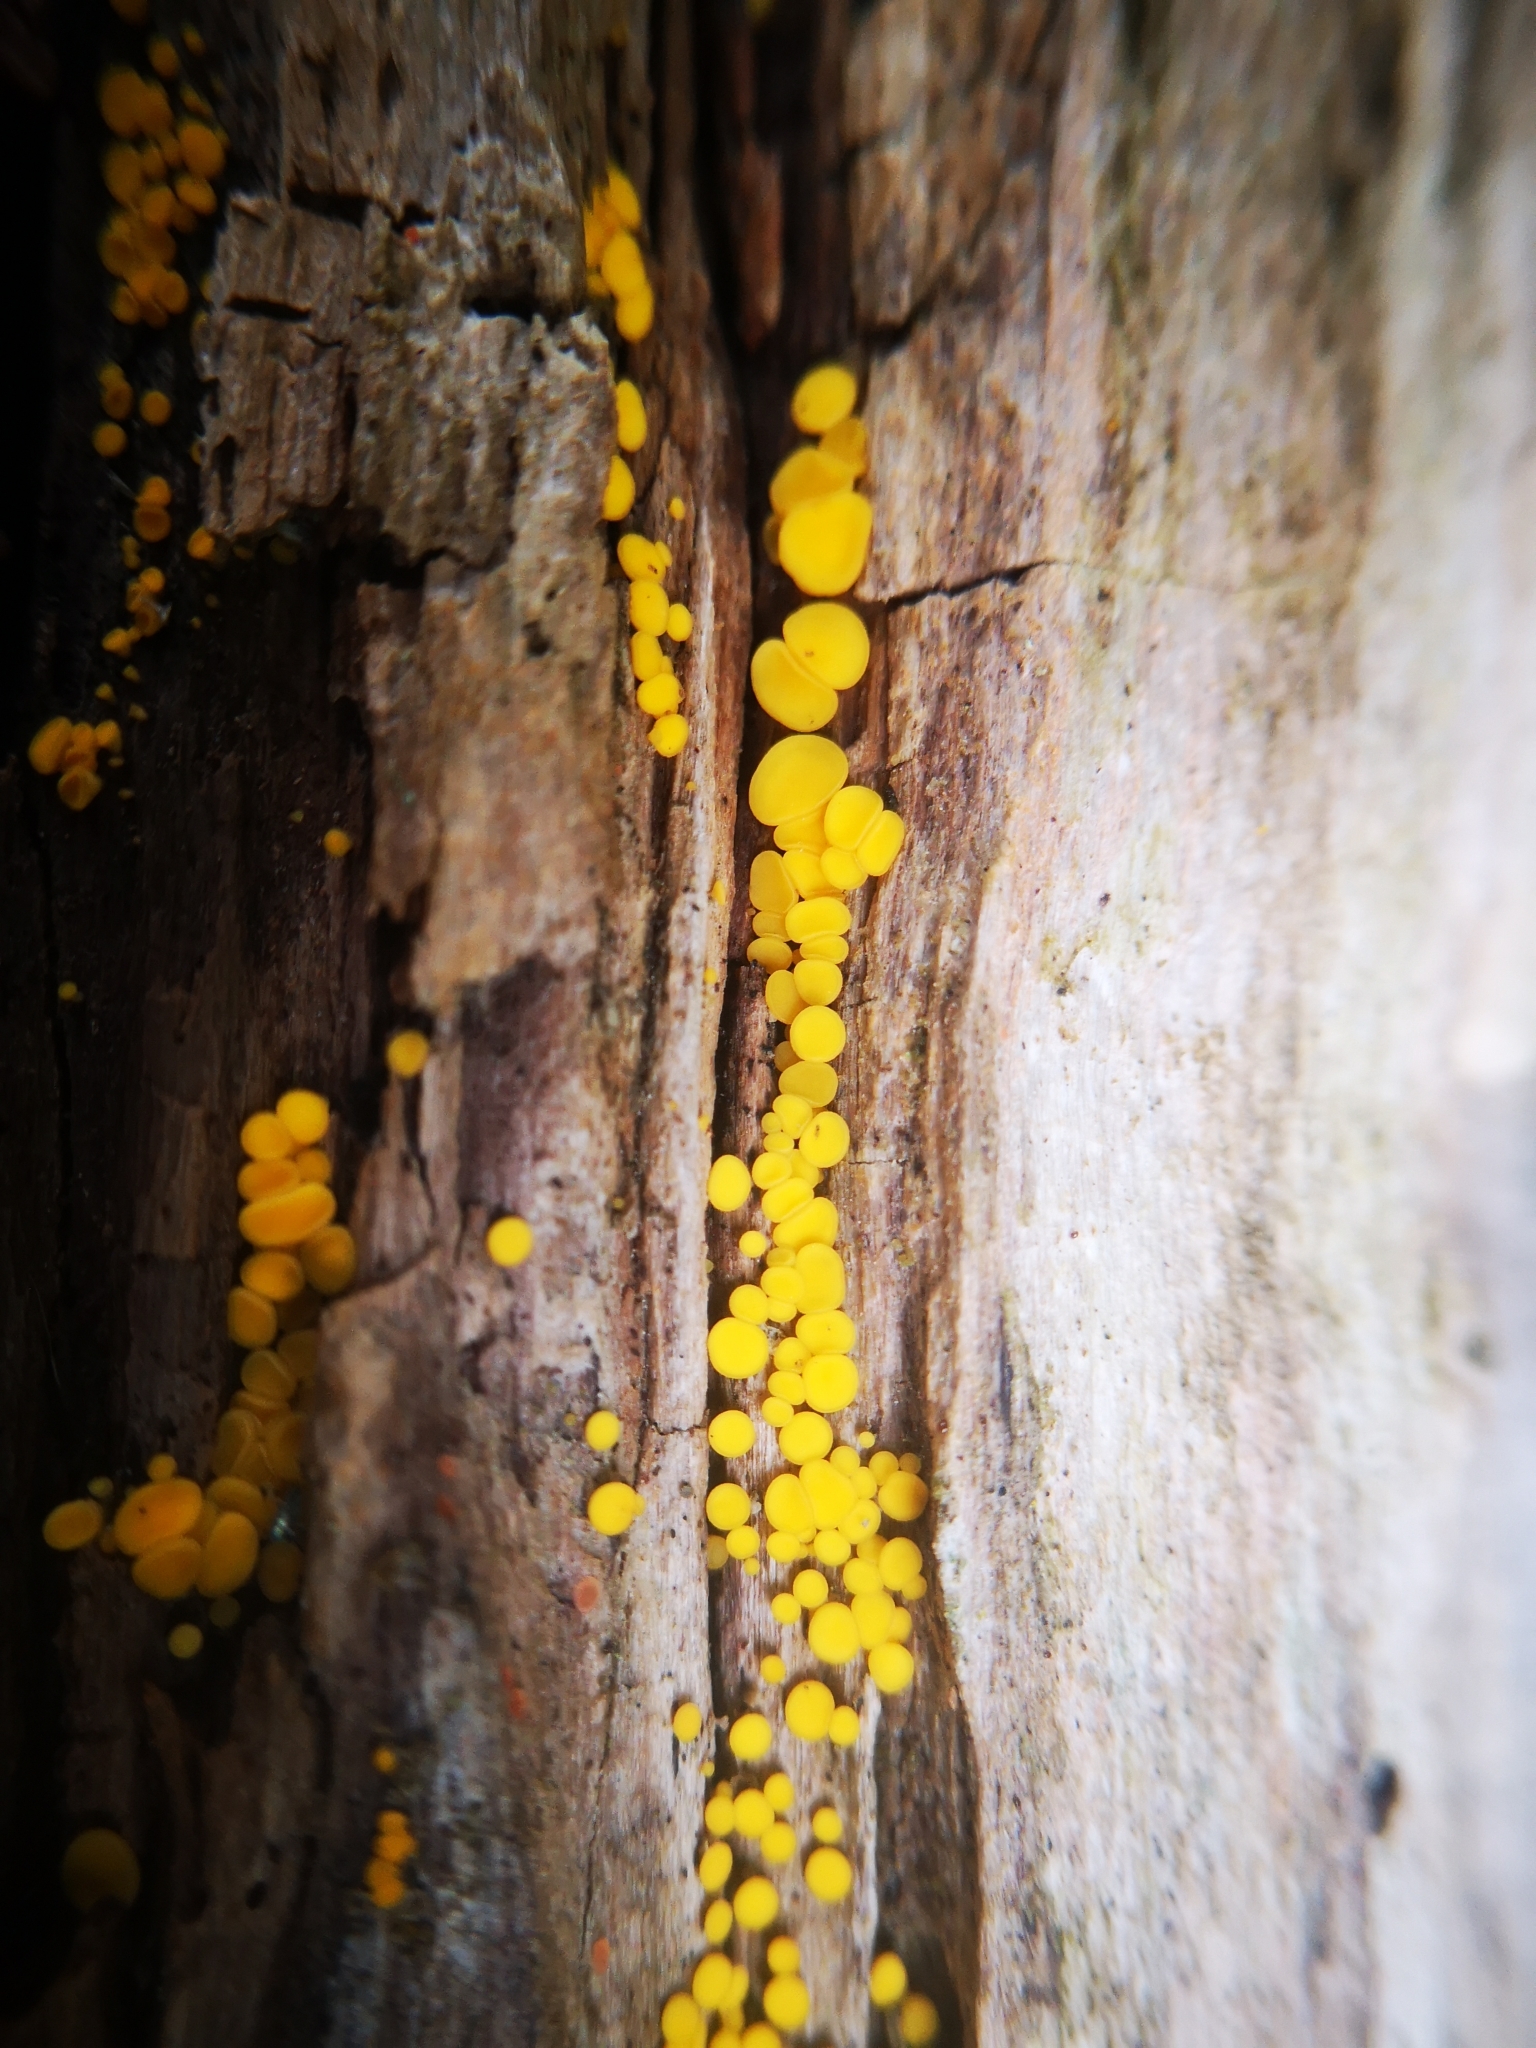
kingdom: Fungi
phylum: Ascomycota
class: Leotiomycetes
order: Helotiales
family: Pezizellaceae
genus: Calycina
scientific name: Calycina citrina
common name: Yellow fairy cups
